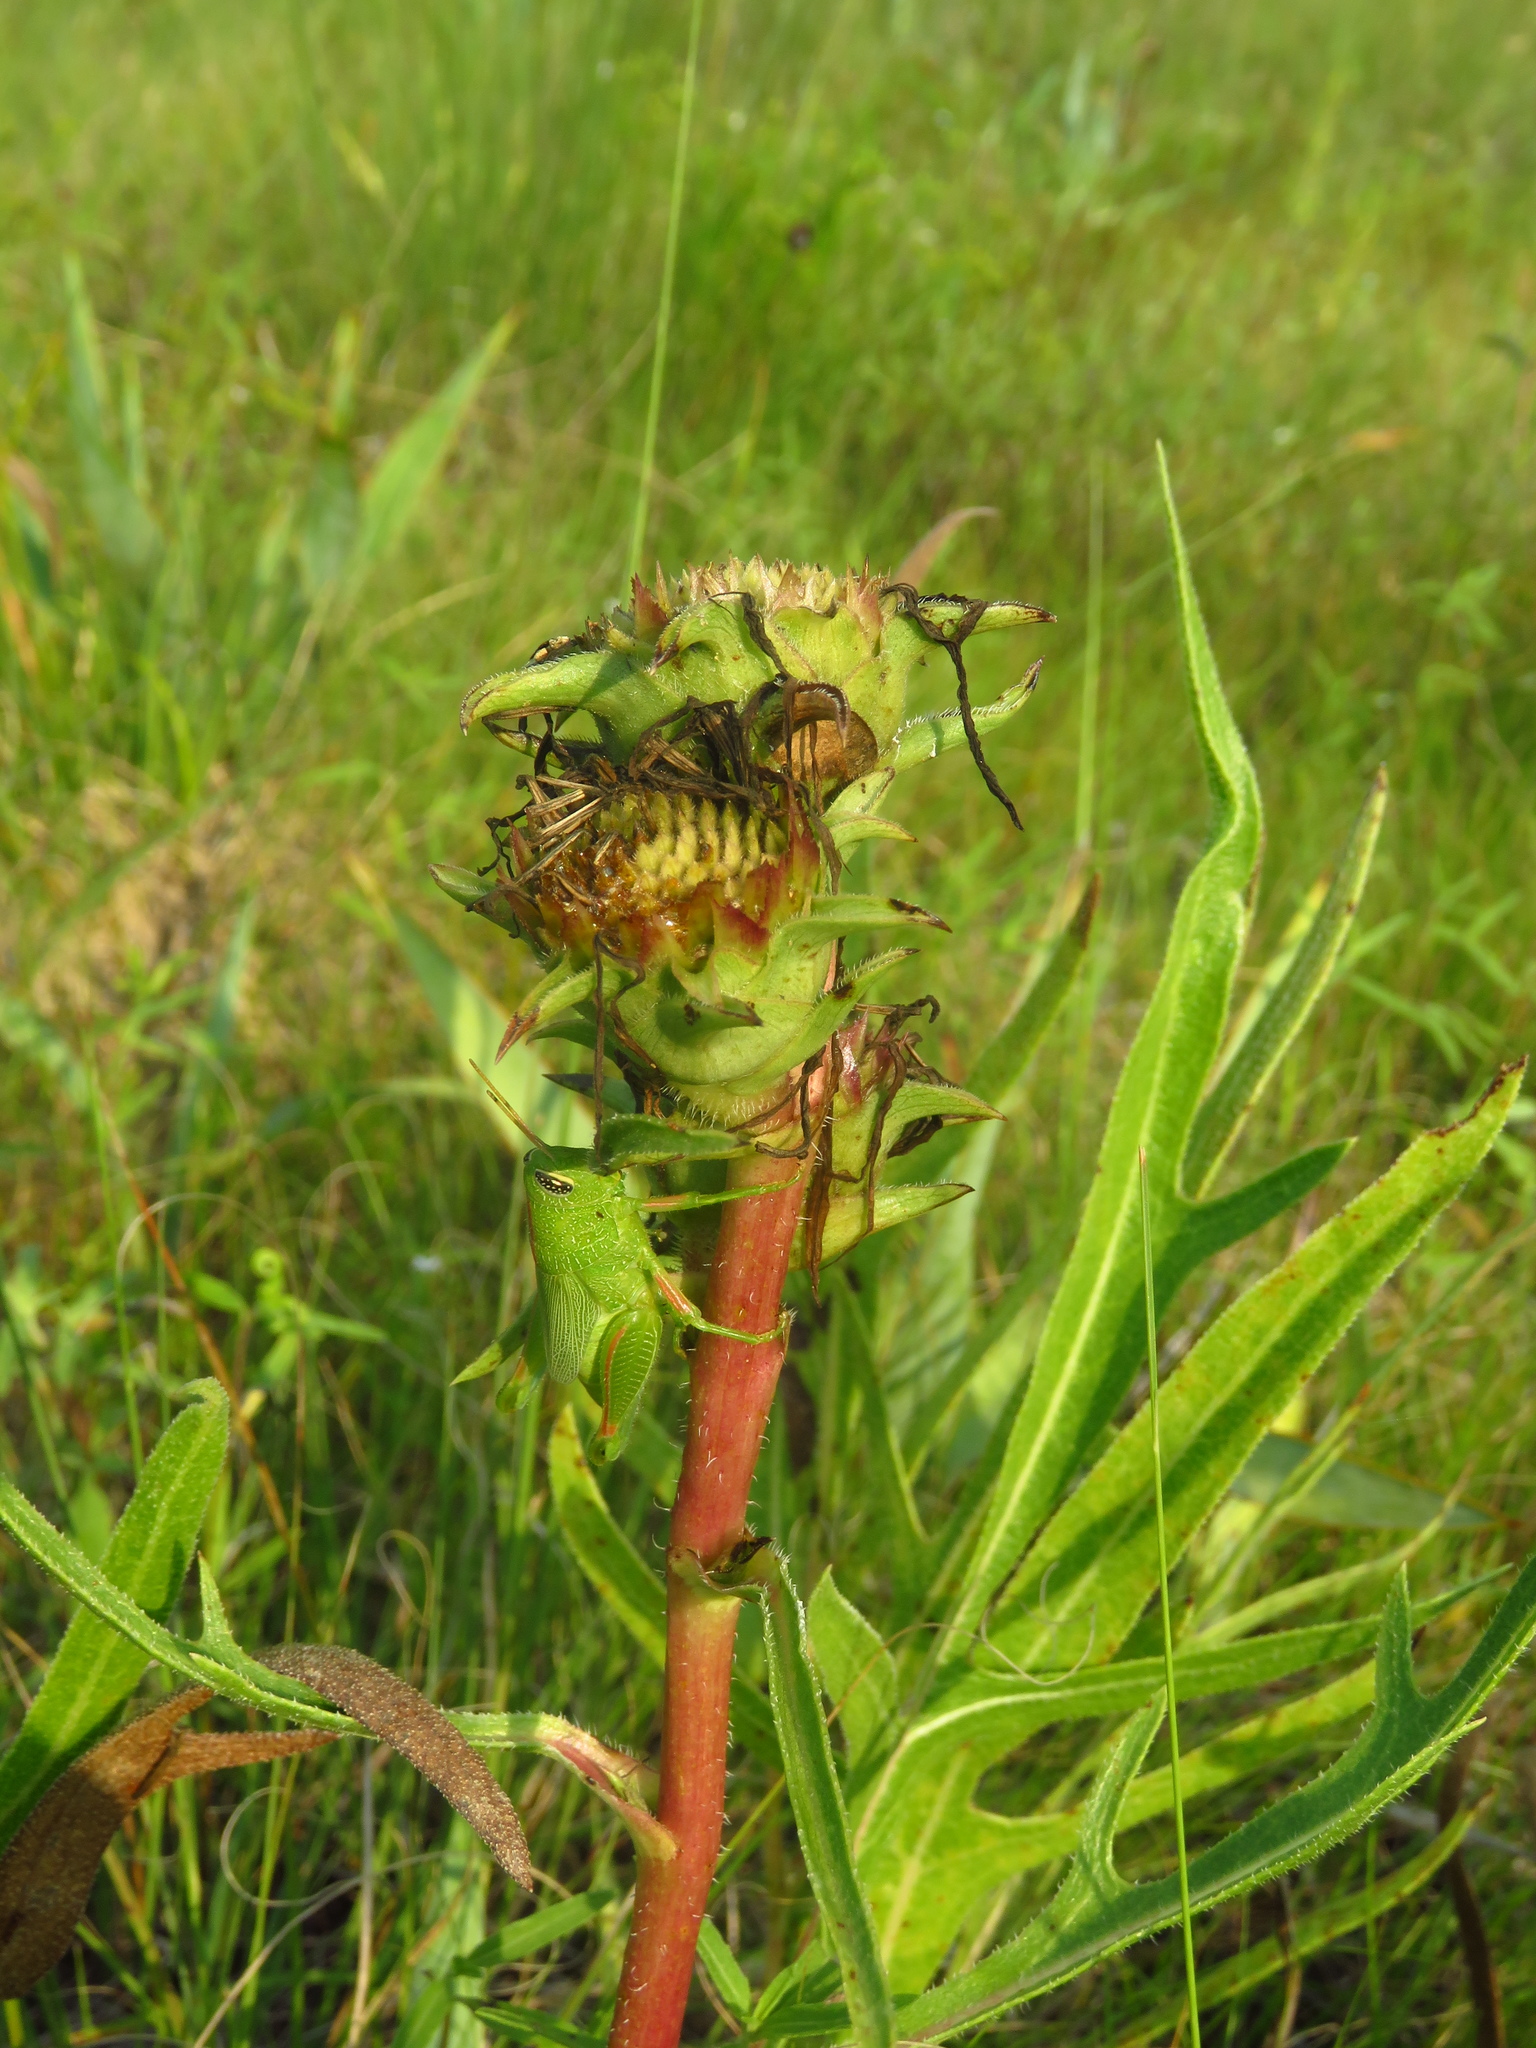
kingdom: Plantae
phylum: Tracheophyta
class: Magnoliopsida
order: Asterales
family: Asteraceae
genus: Silphium
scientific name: Silphium albiflorum
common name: White rosinweed
